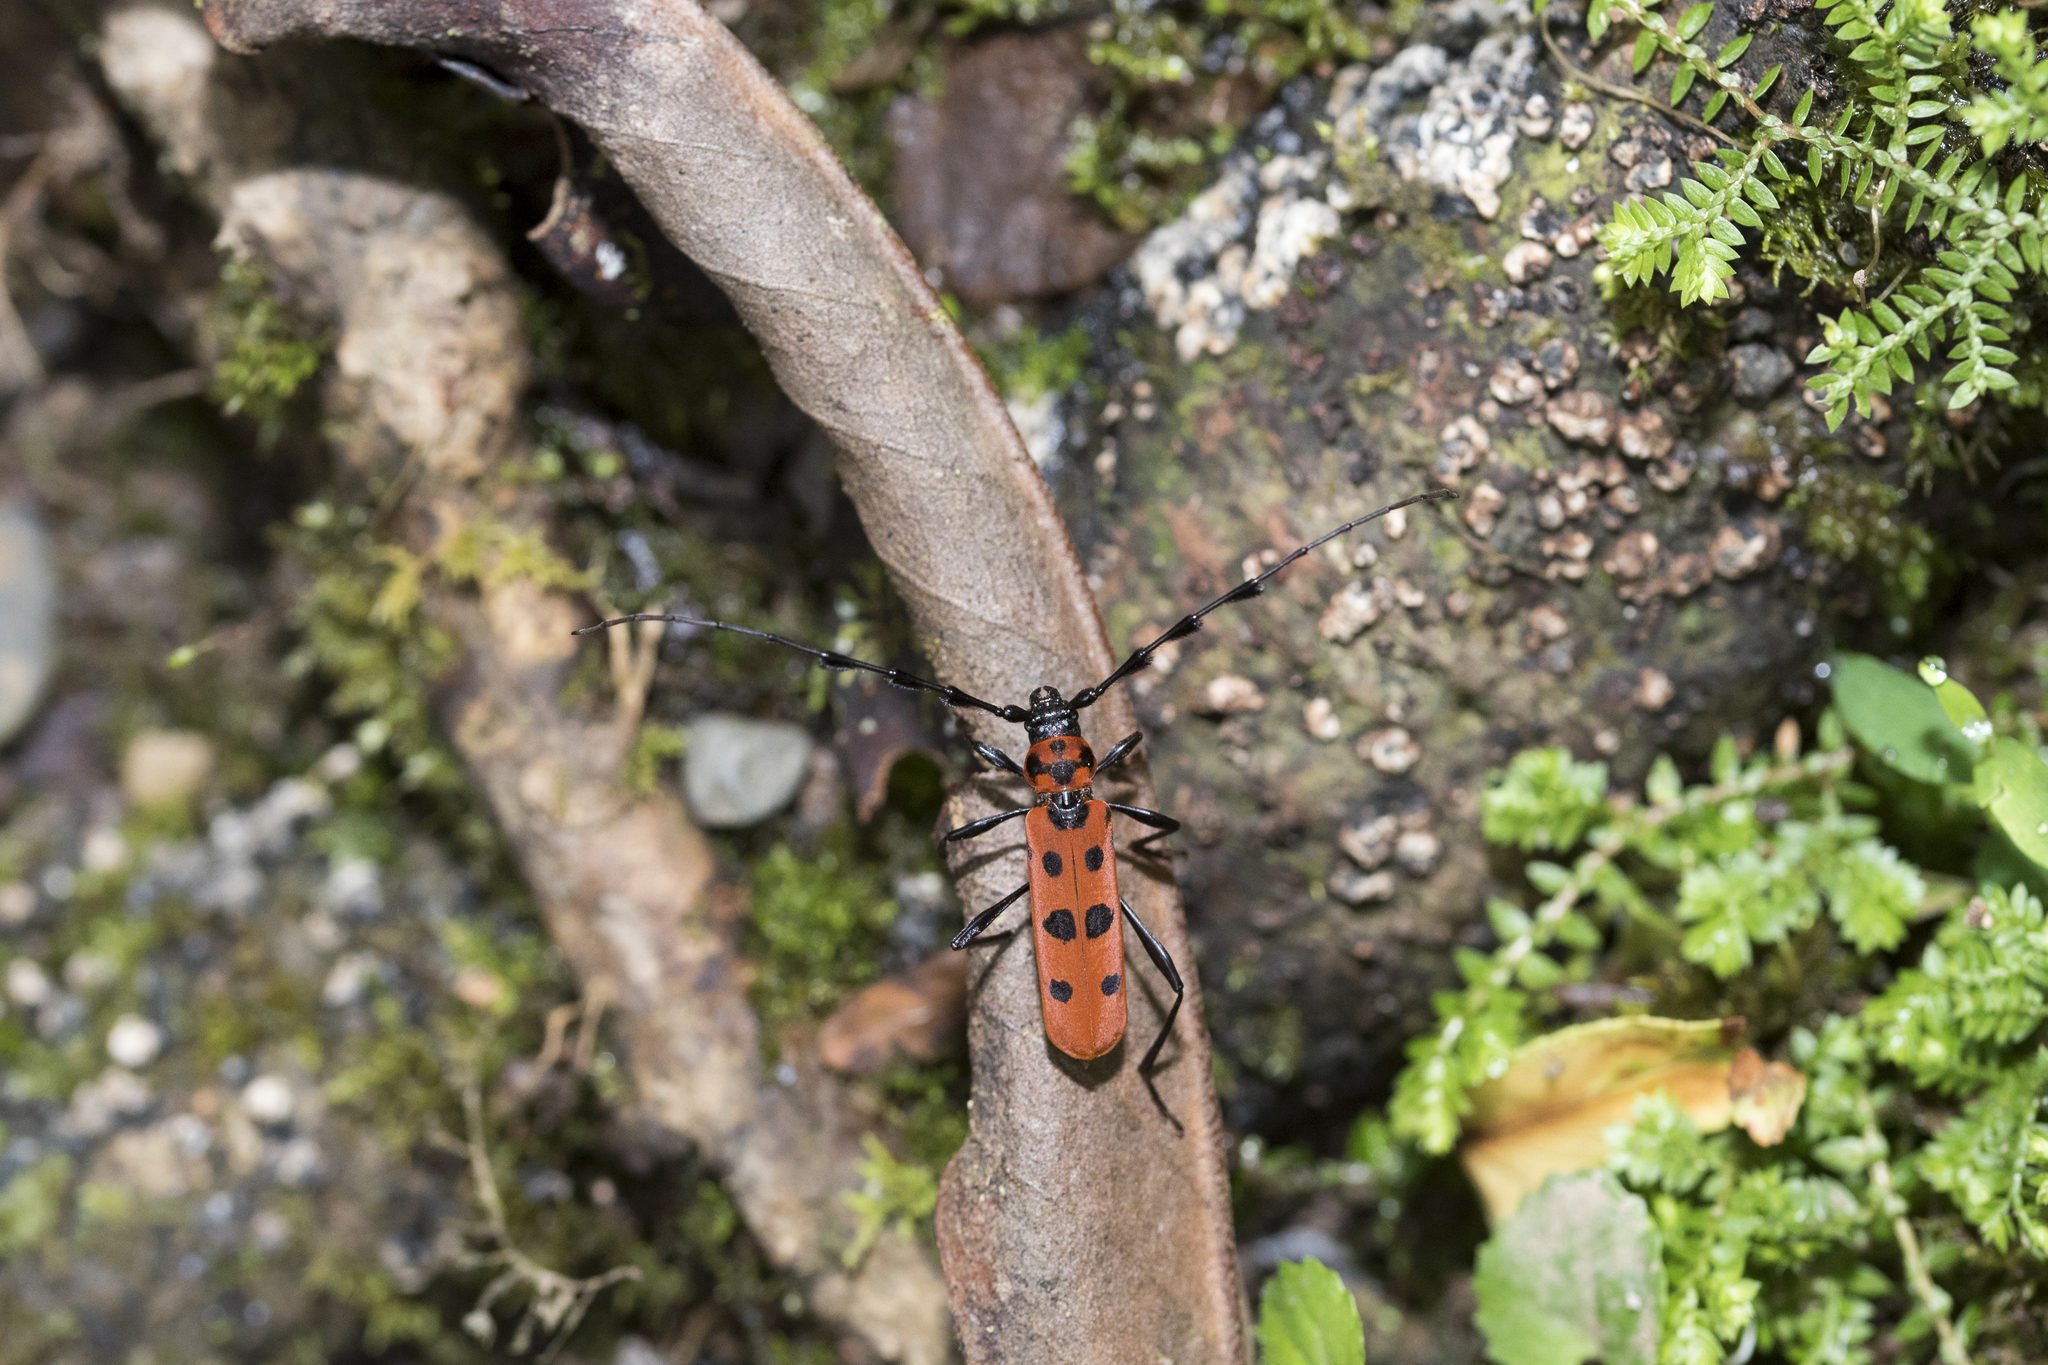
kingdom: Animalia
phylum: Arthropoda
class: Insecta
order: Coleoptera
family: Cerambycidae
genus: Rosalia
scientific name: Rosalia lesnei
